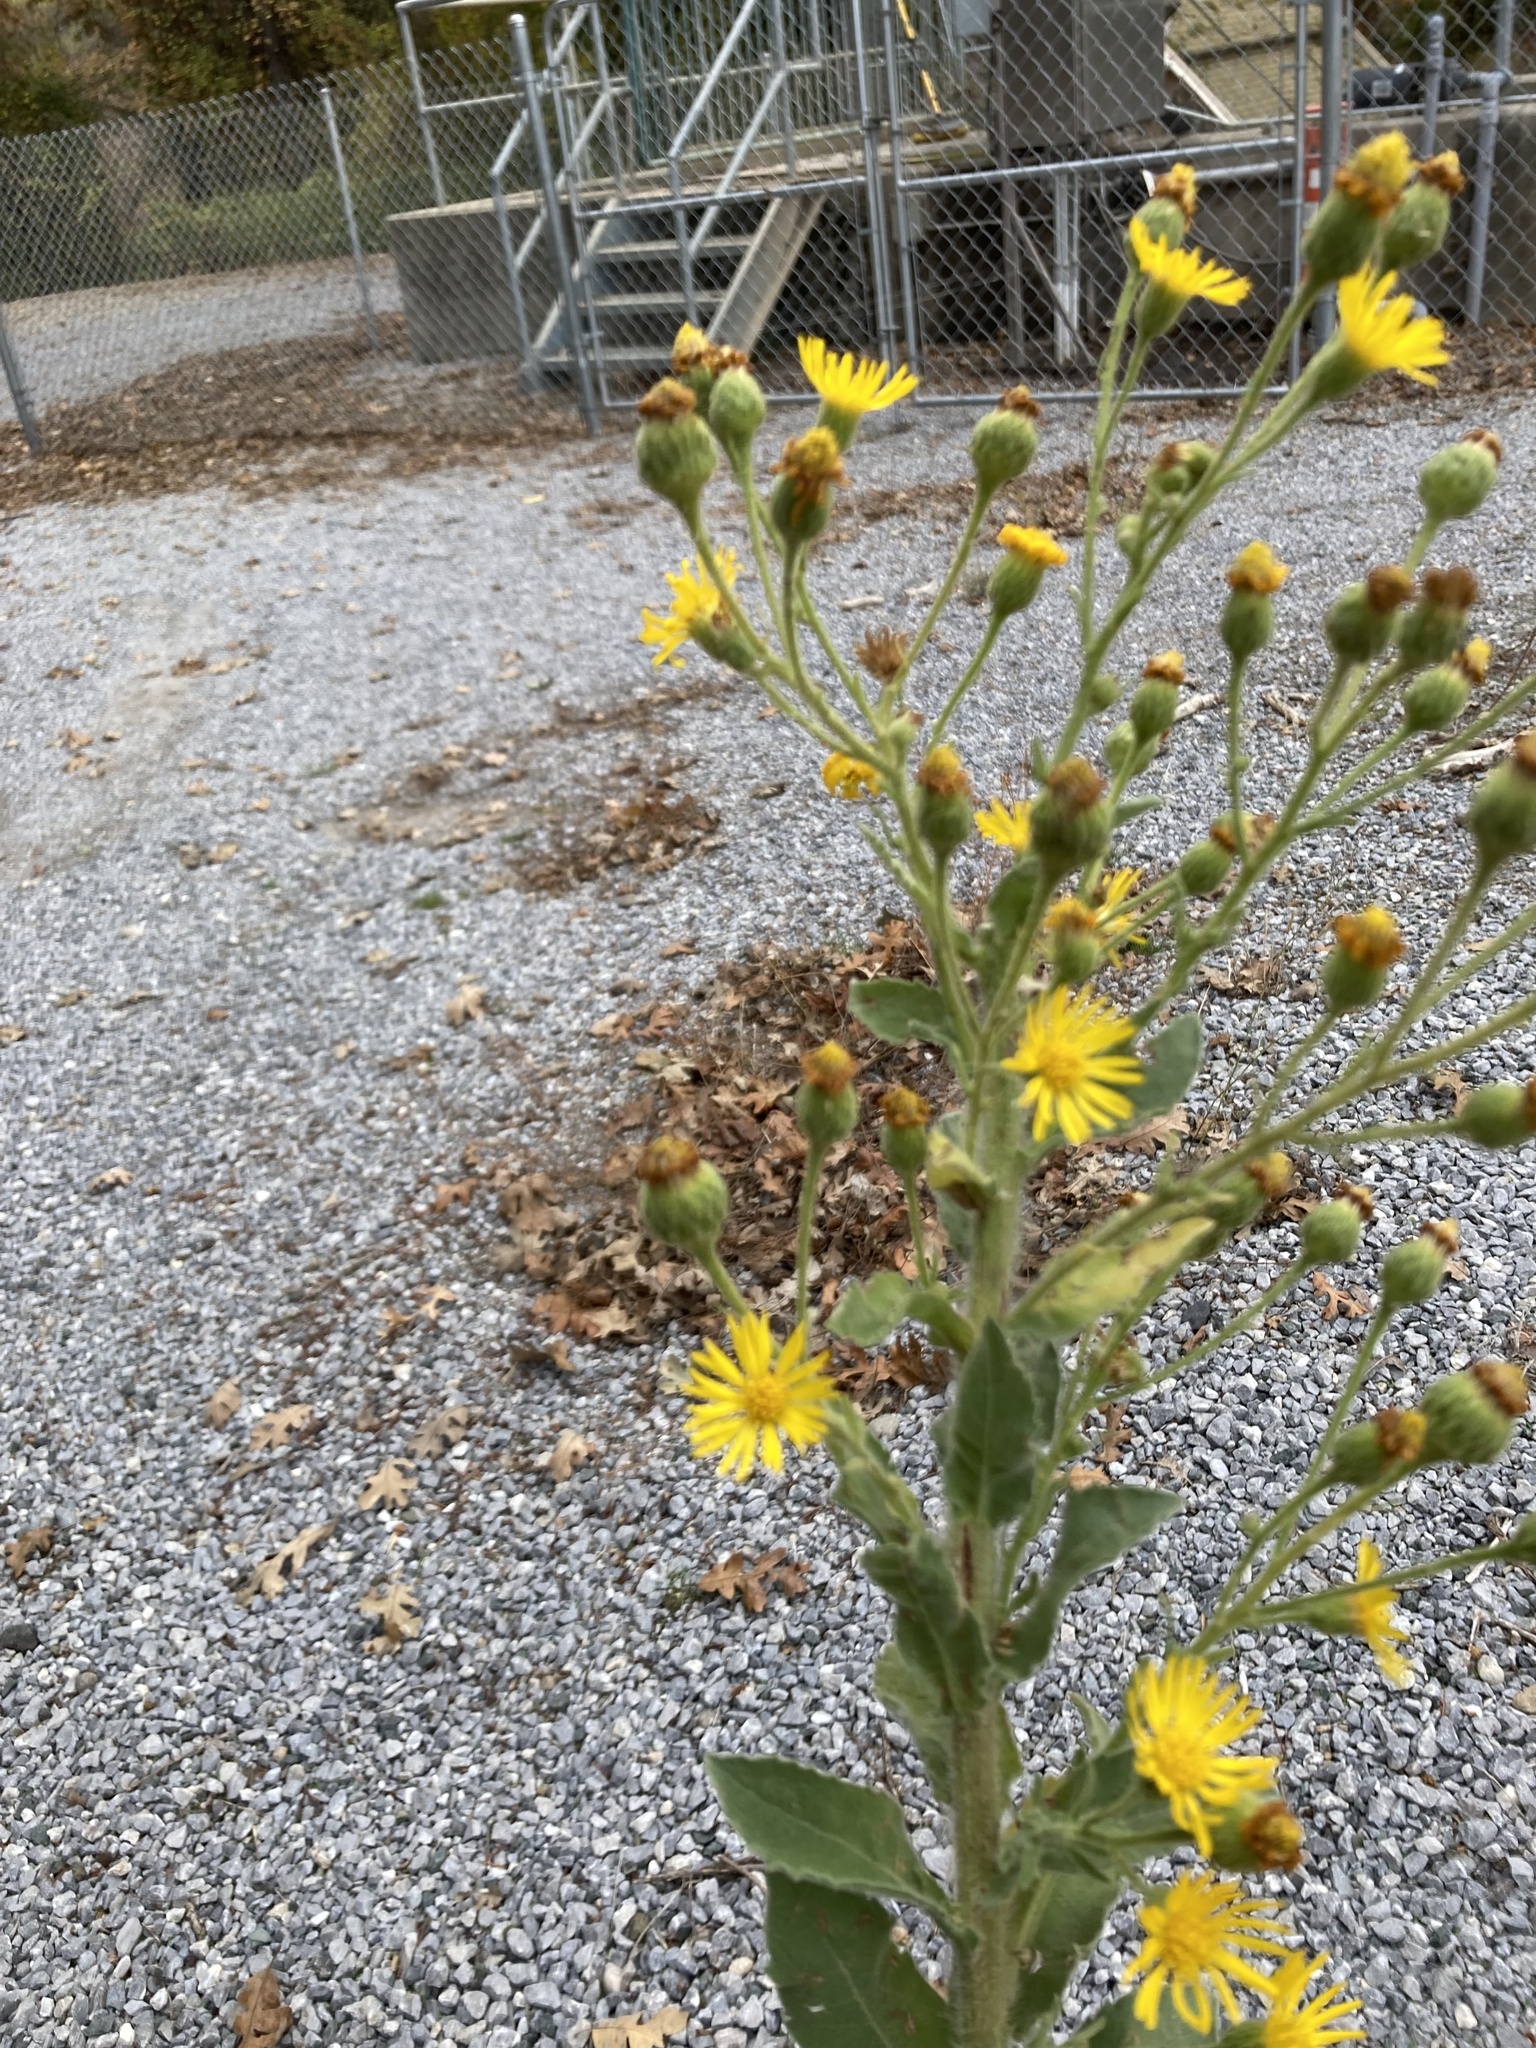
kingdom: Plantae
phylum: Tracheophyta
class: Magnoliopsida
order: Asterales
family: Asteraceae
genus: Heterotheca
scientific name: Heterotheca grandiflora
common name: Telegraphweed
